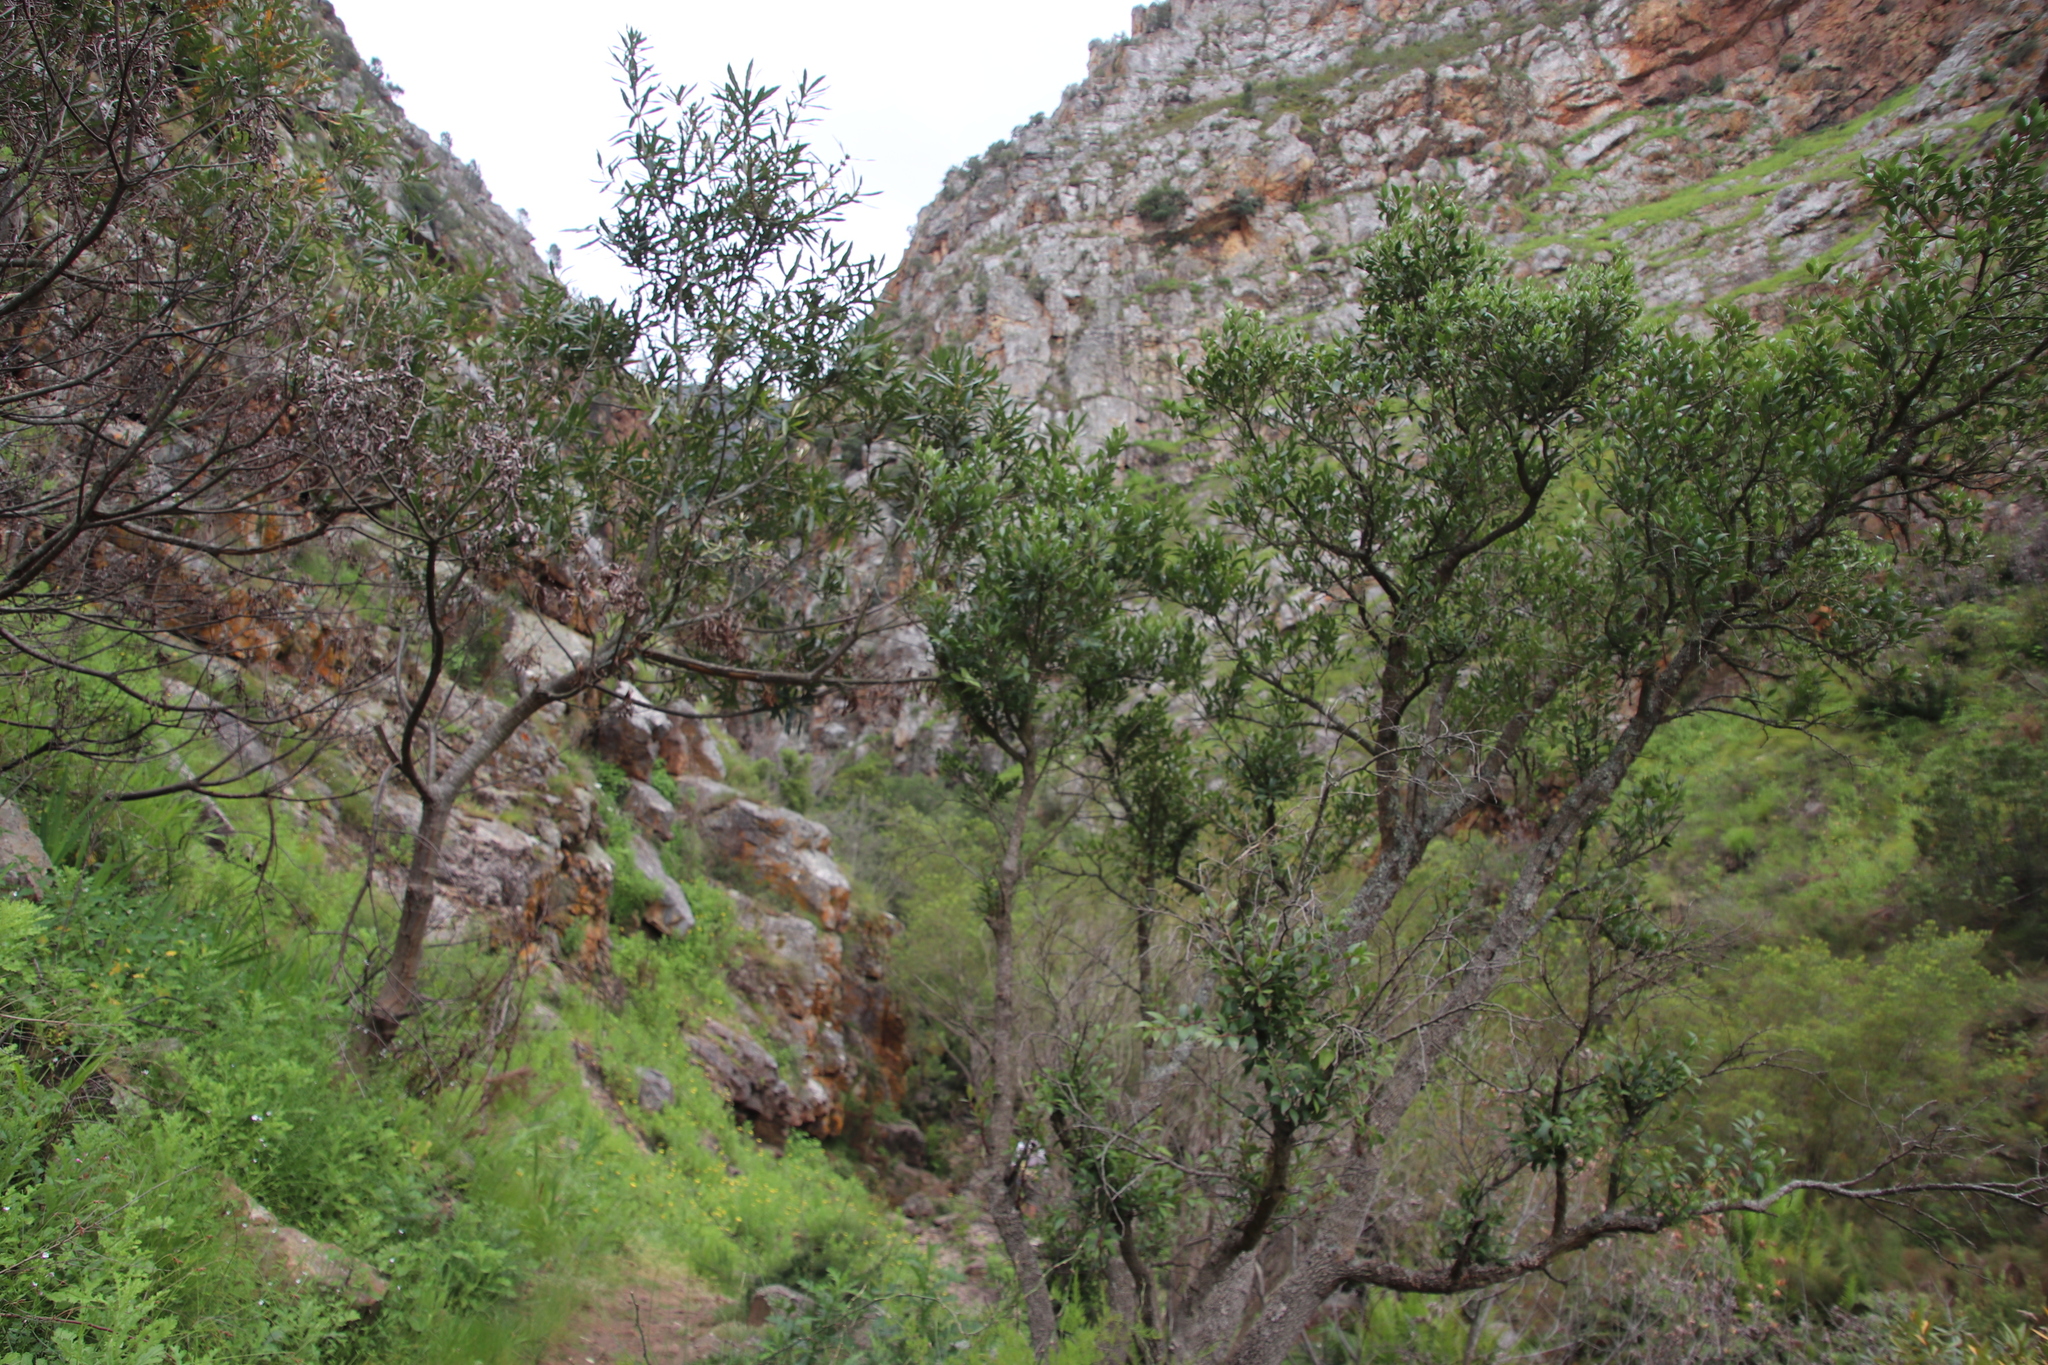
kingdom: Plantae
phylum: Tracheophyta
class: Magnoliopsida
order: Proteales
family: Proteaceae
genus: Brabejum
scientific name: Brabejum stellatifolium
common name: Wild almond
